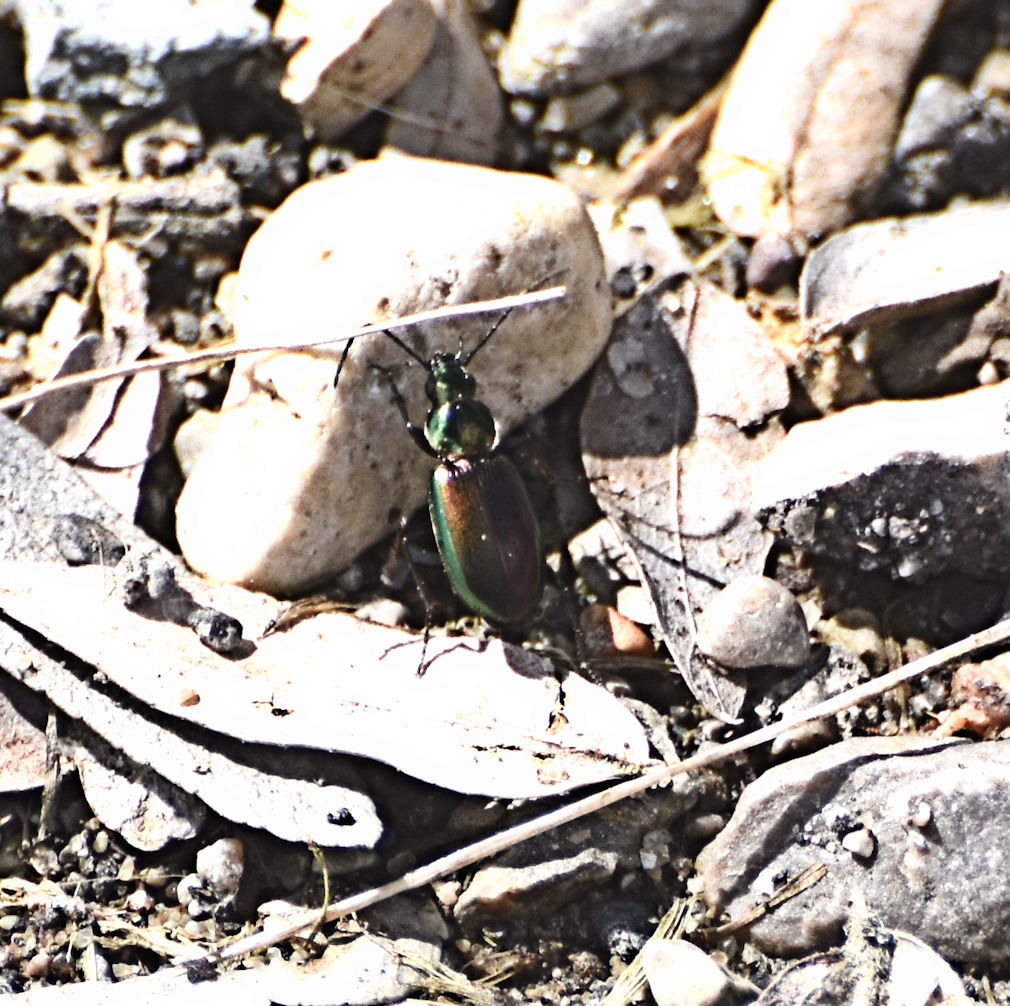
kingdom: Animalia
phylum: Arthropoda
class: Insecta
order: Coleoptera
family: Carabidae
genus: Agonum
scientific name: Agonum cupripenne
